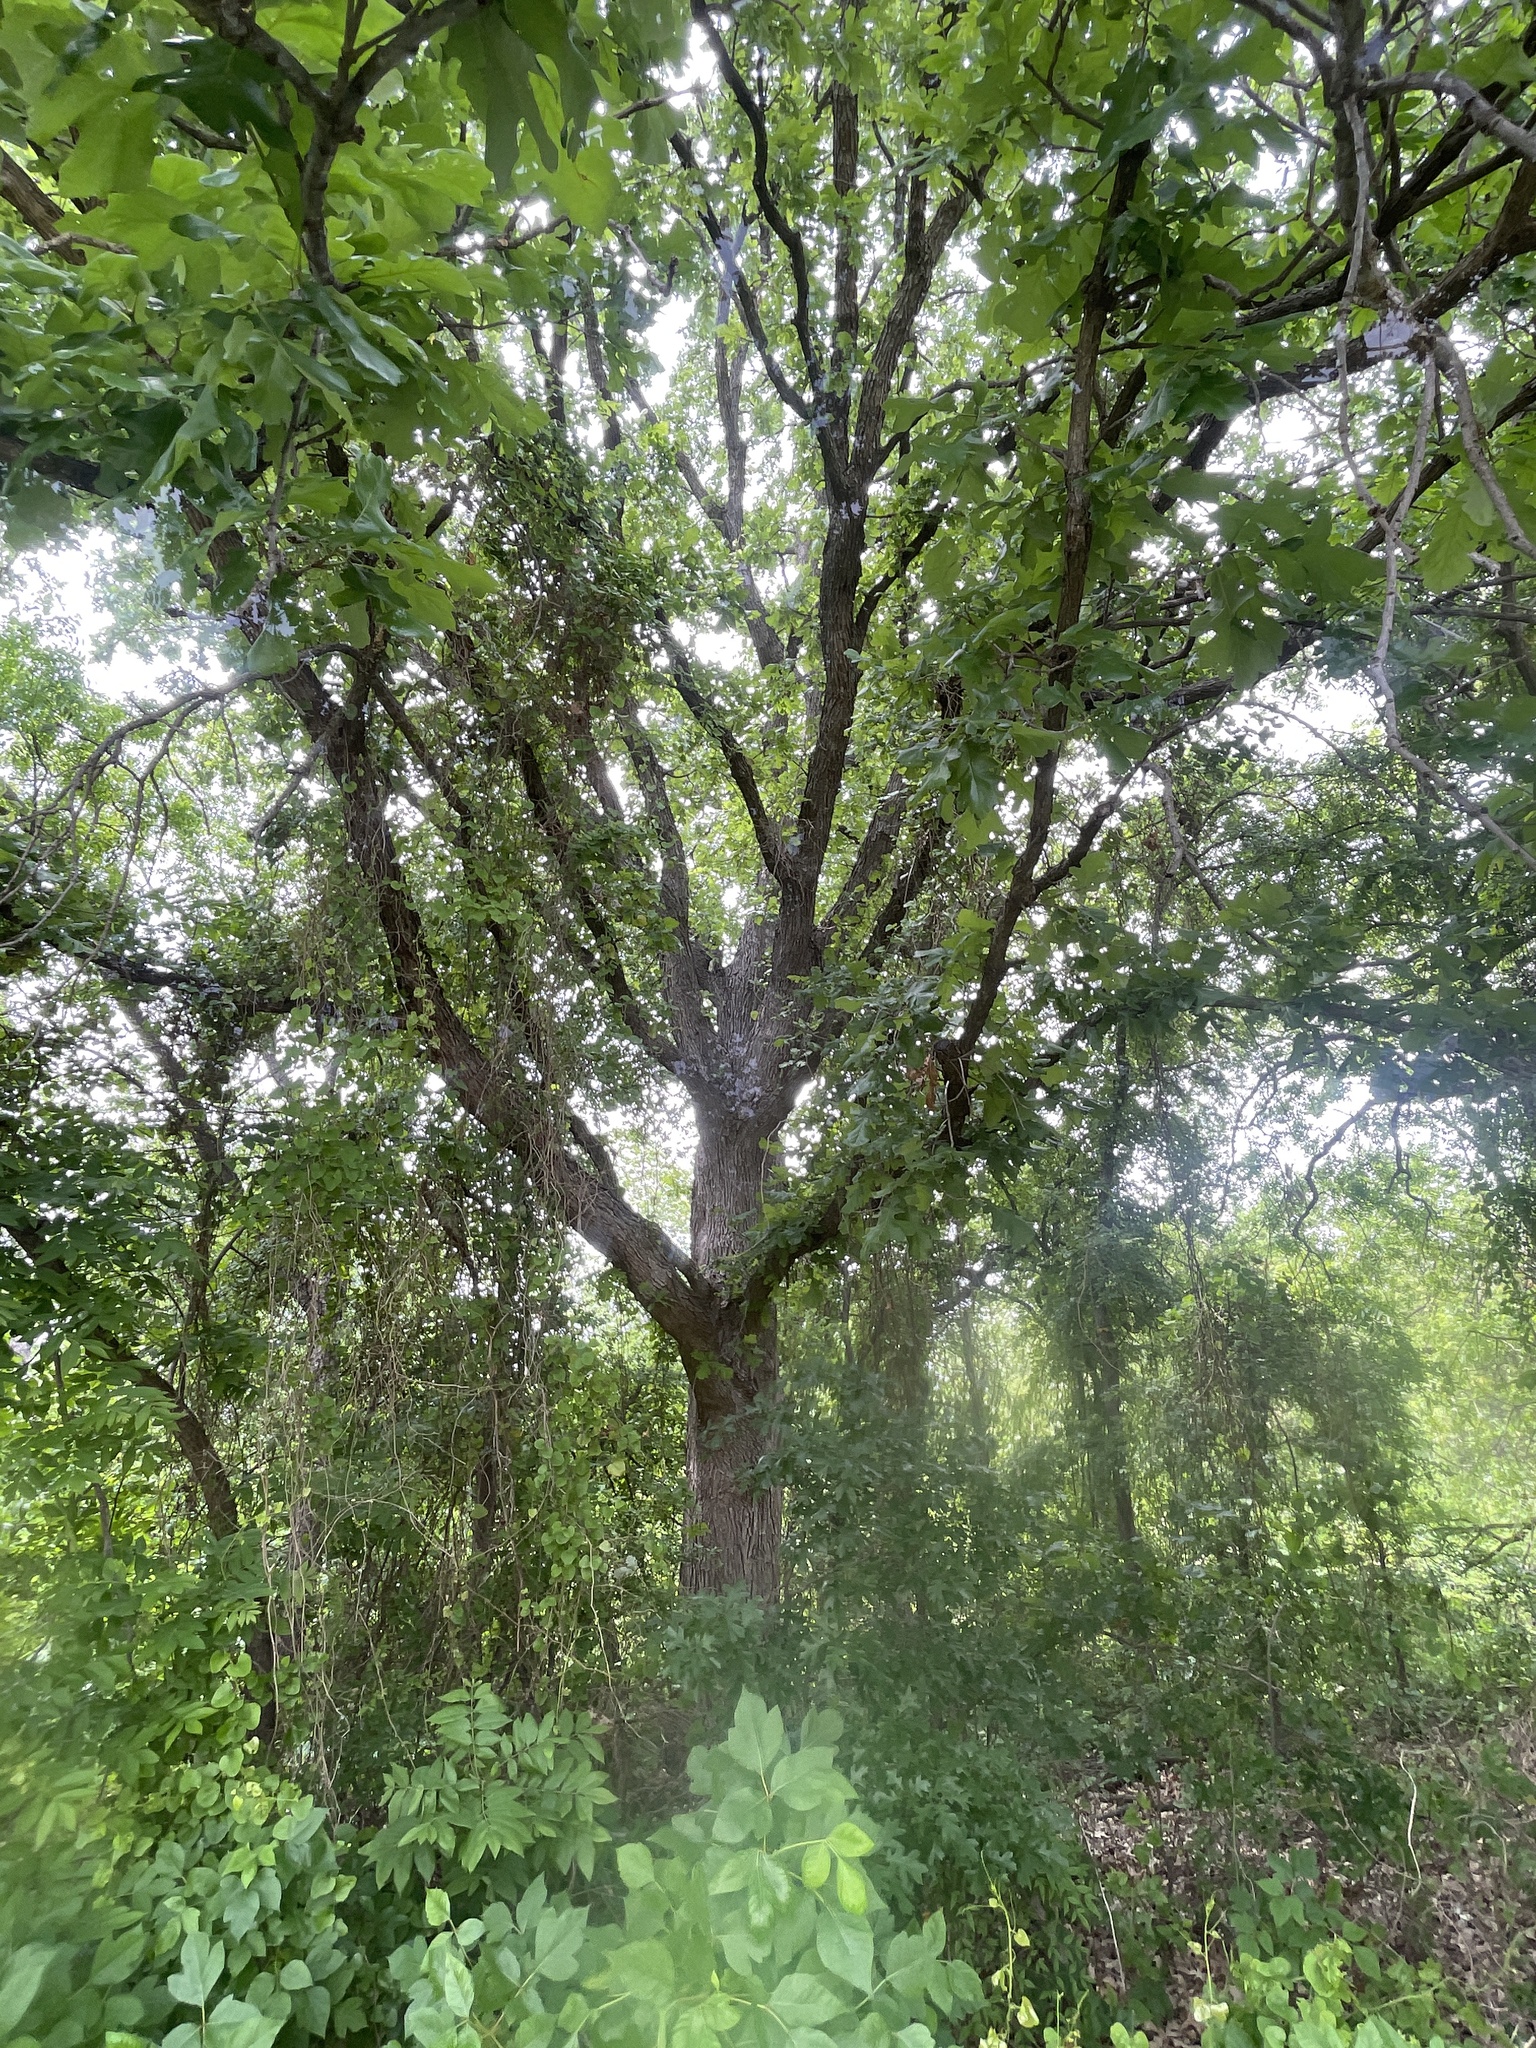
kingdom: Plantae
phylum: Tracheophyta
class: Magnoliopsida
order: Fagales
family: Fagaceae
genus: Quercus
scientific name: Quercus macrocarpa
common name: Bur oak
